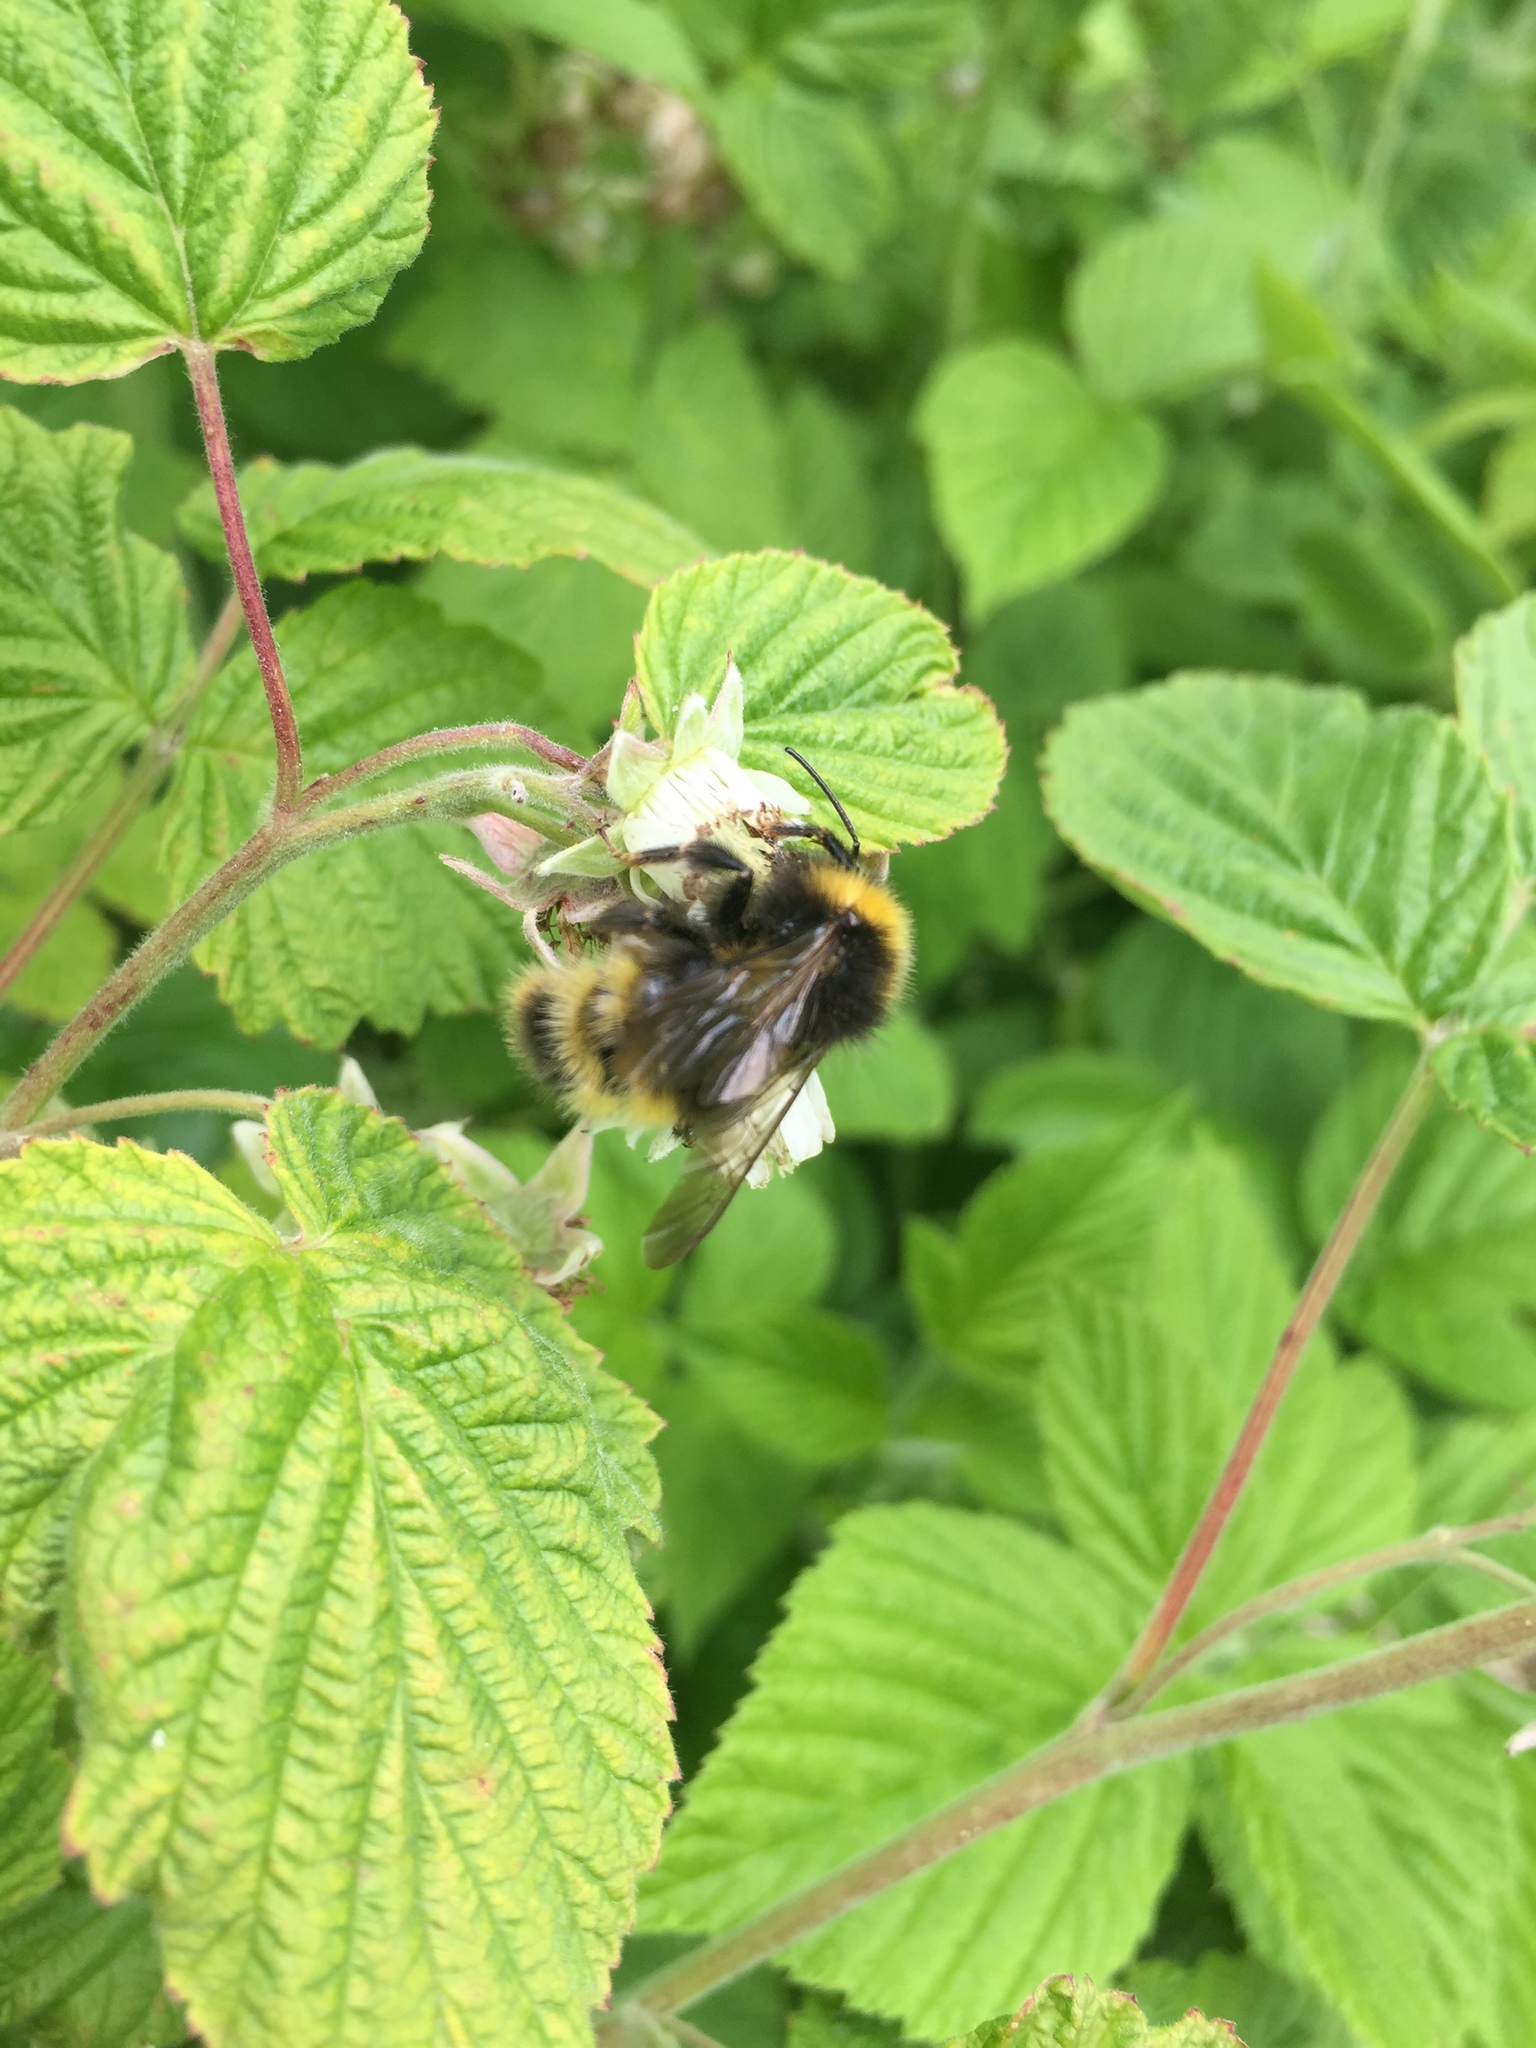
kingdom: Animalia
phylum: Arthropoda
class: Insecta
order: Hymenoptera
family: Apidae
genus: Bombus
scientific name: Bombus campestris
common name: Field cuckoo-bee
